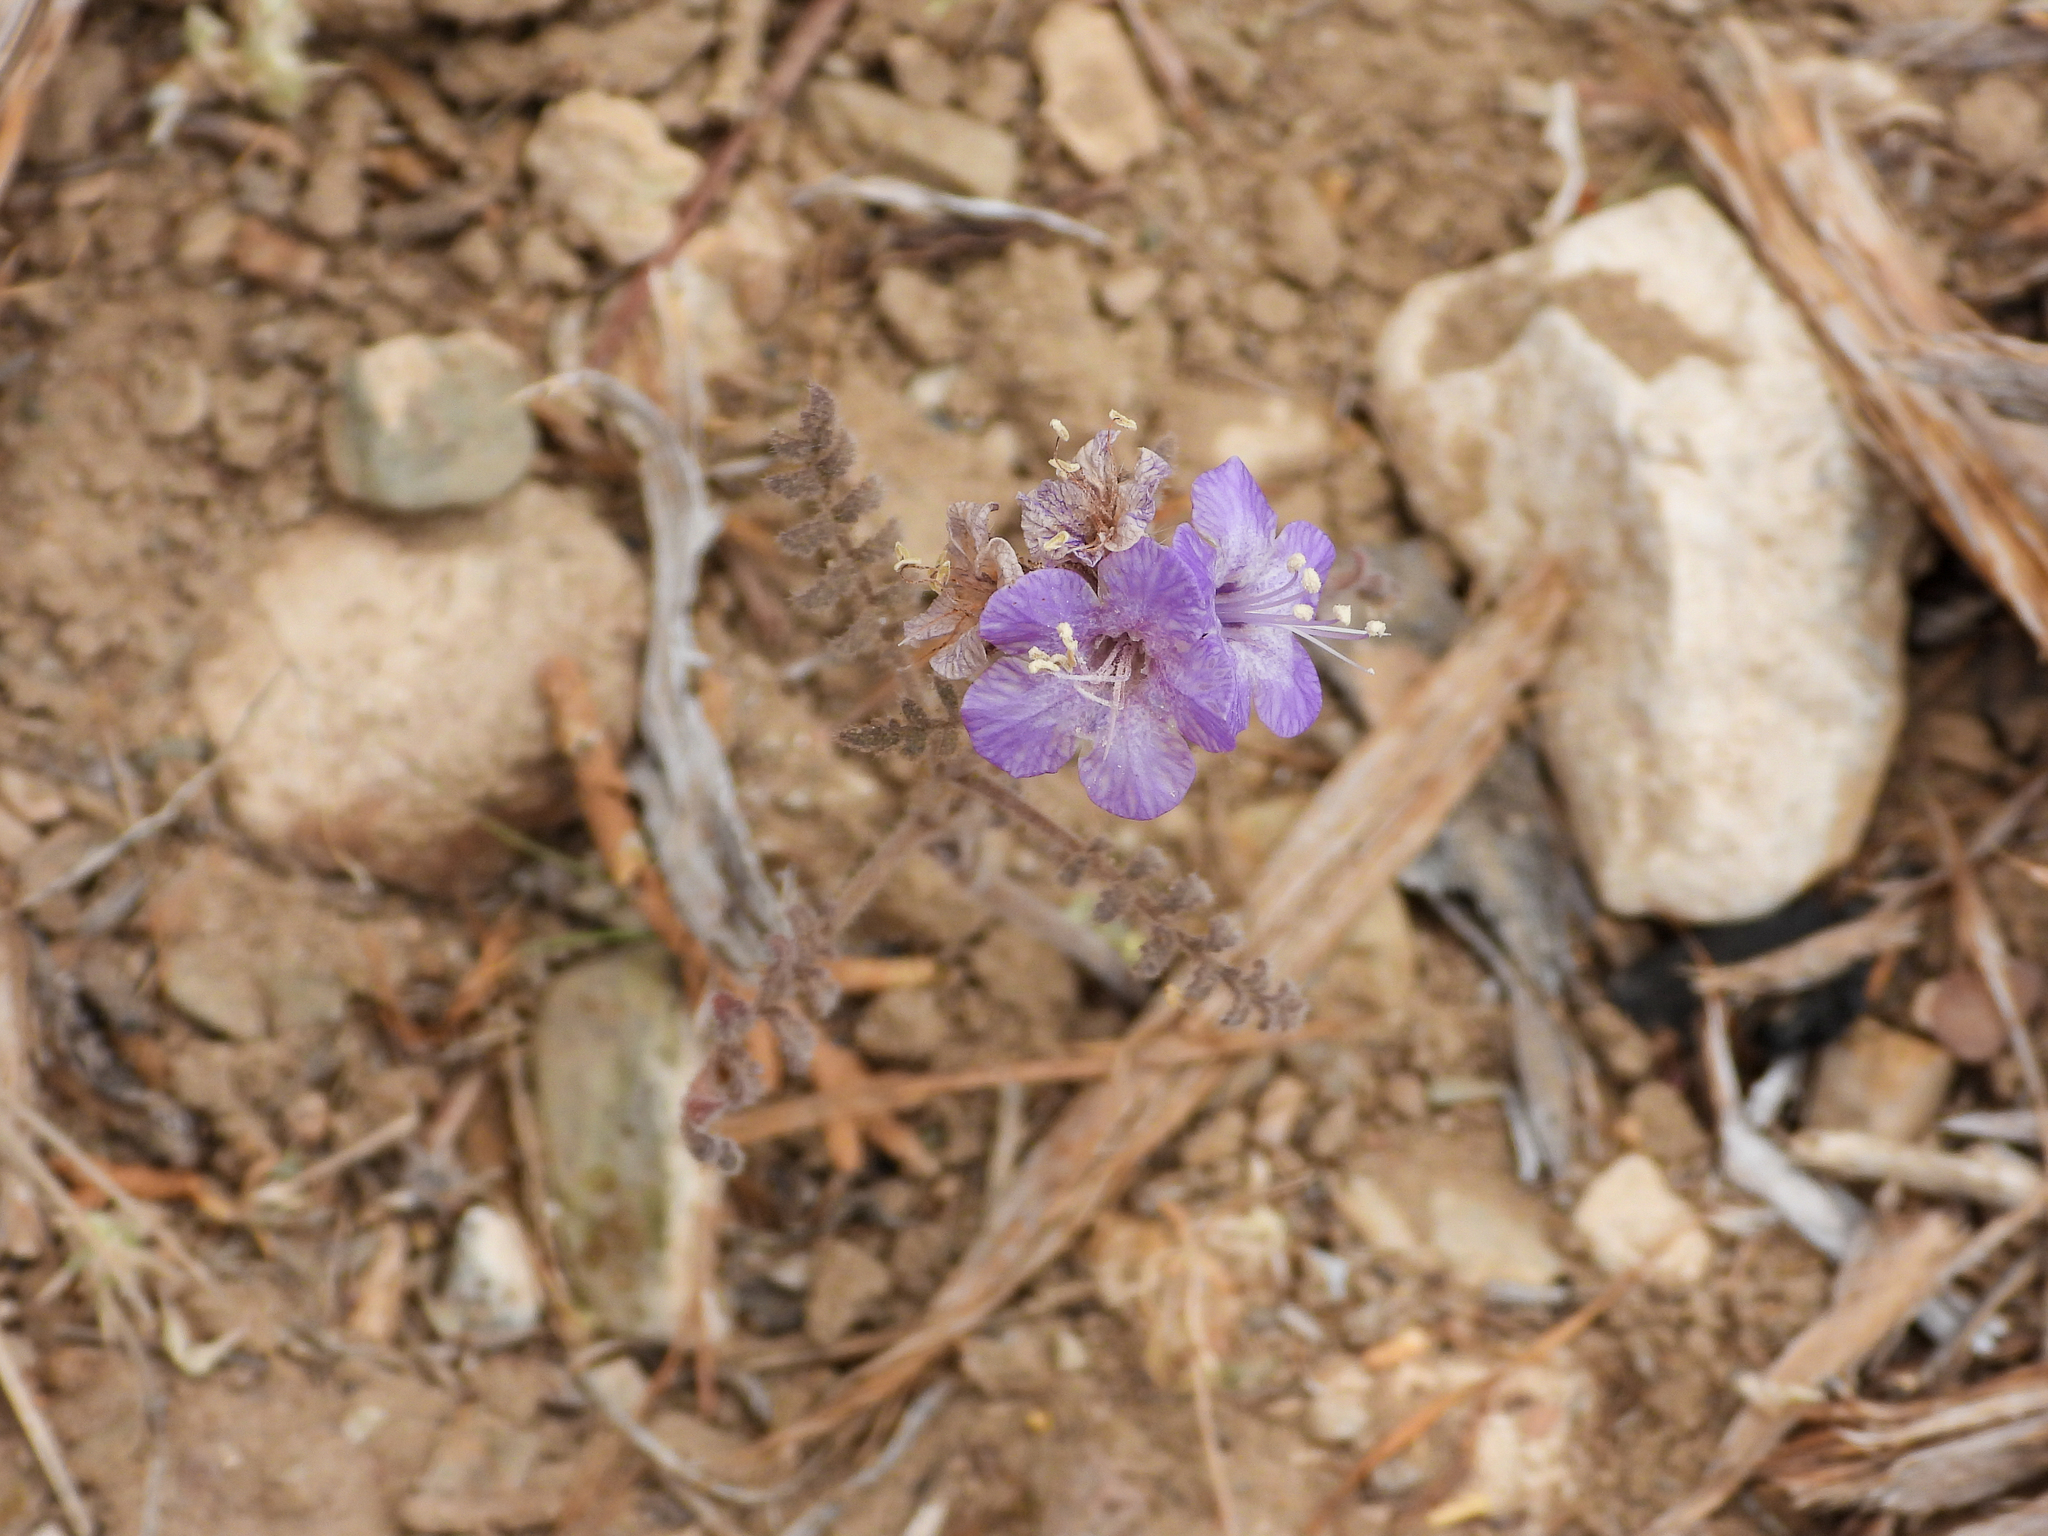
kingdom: Plantae
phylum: Tracheophyta
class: Magnoliopsida
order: Boraginales
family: Hydrophyllaceae
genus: Phacelia
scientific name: Phacelia vallis-mortae
